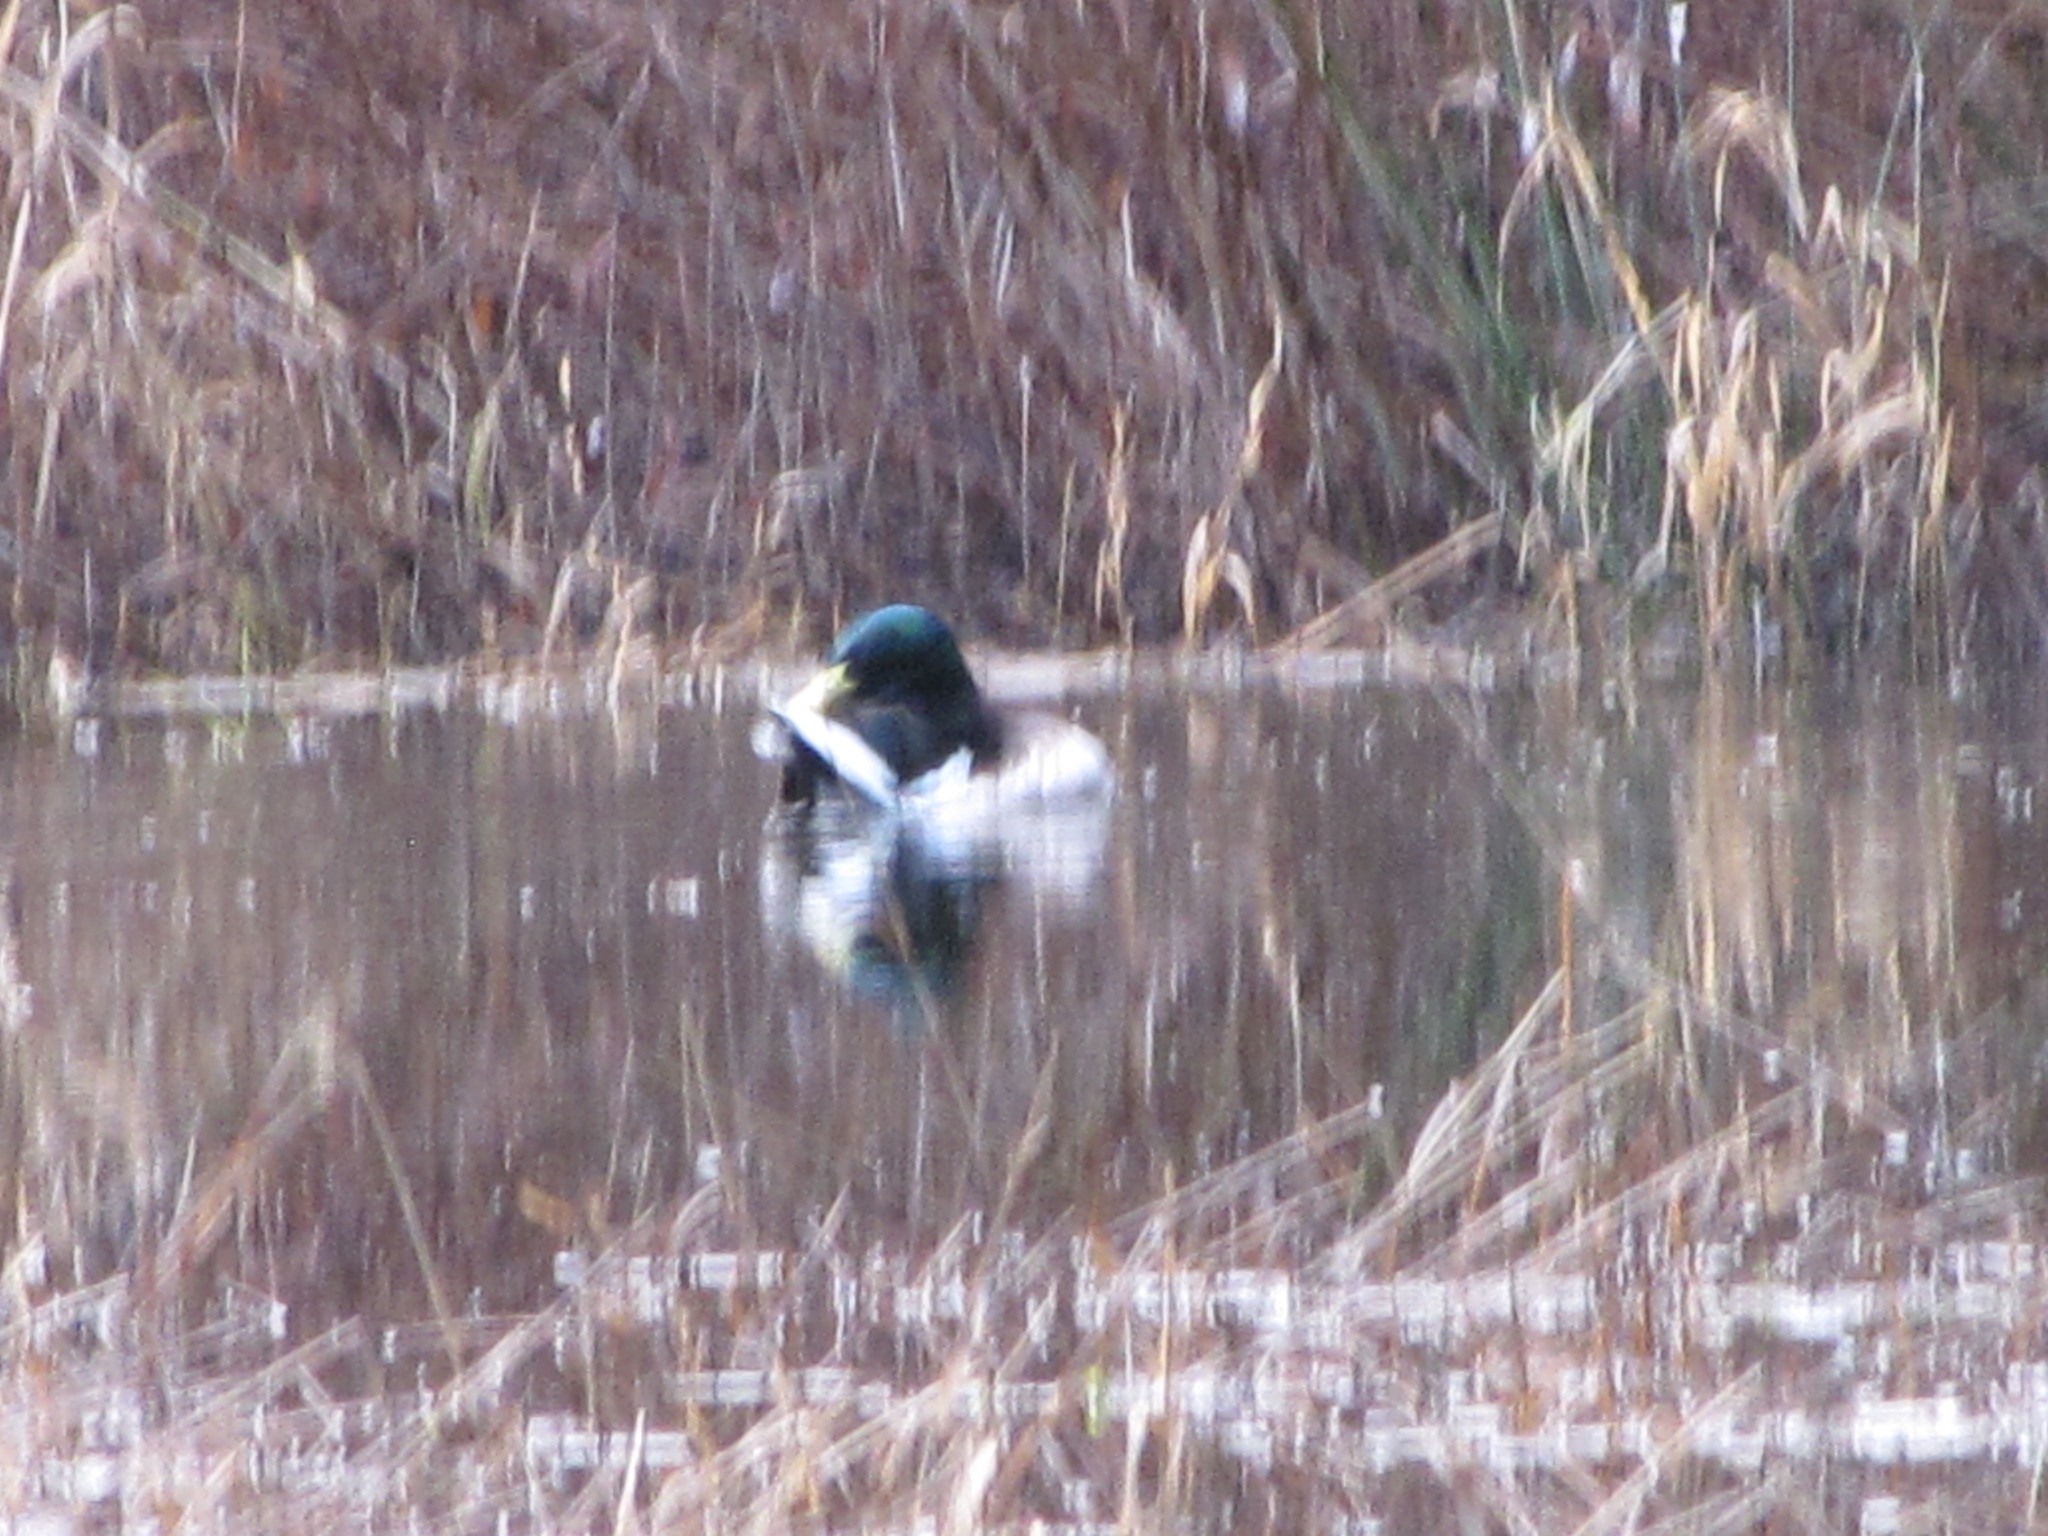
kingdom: Animalia
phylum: Chordata
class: Aves
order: Anseriformes
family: Anatidae
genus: Anas
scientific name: Anas platyrhynchos
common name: Mallard
